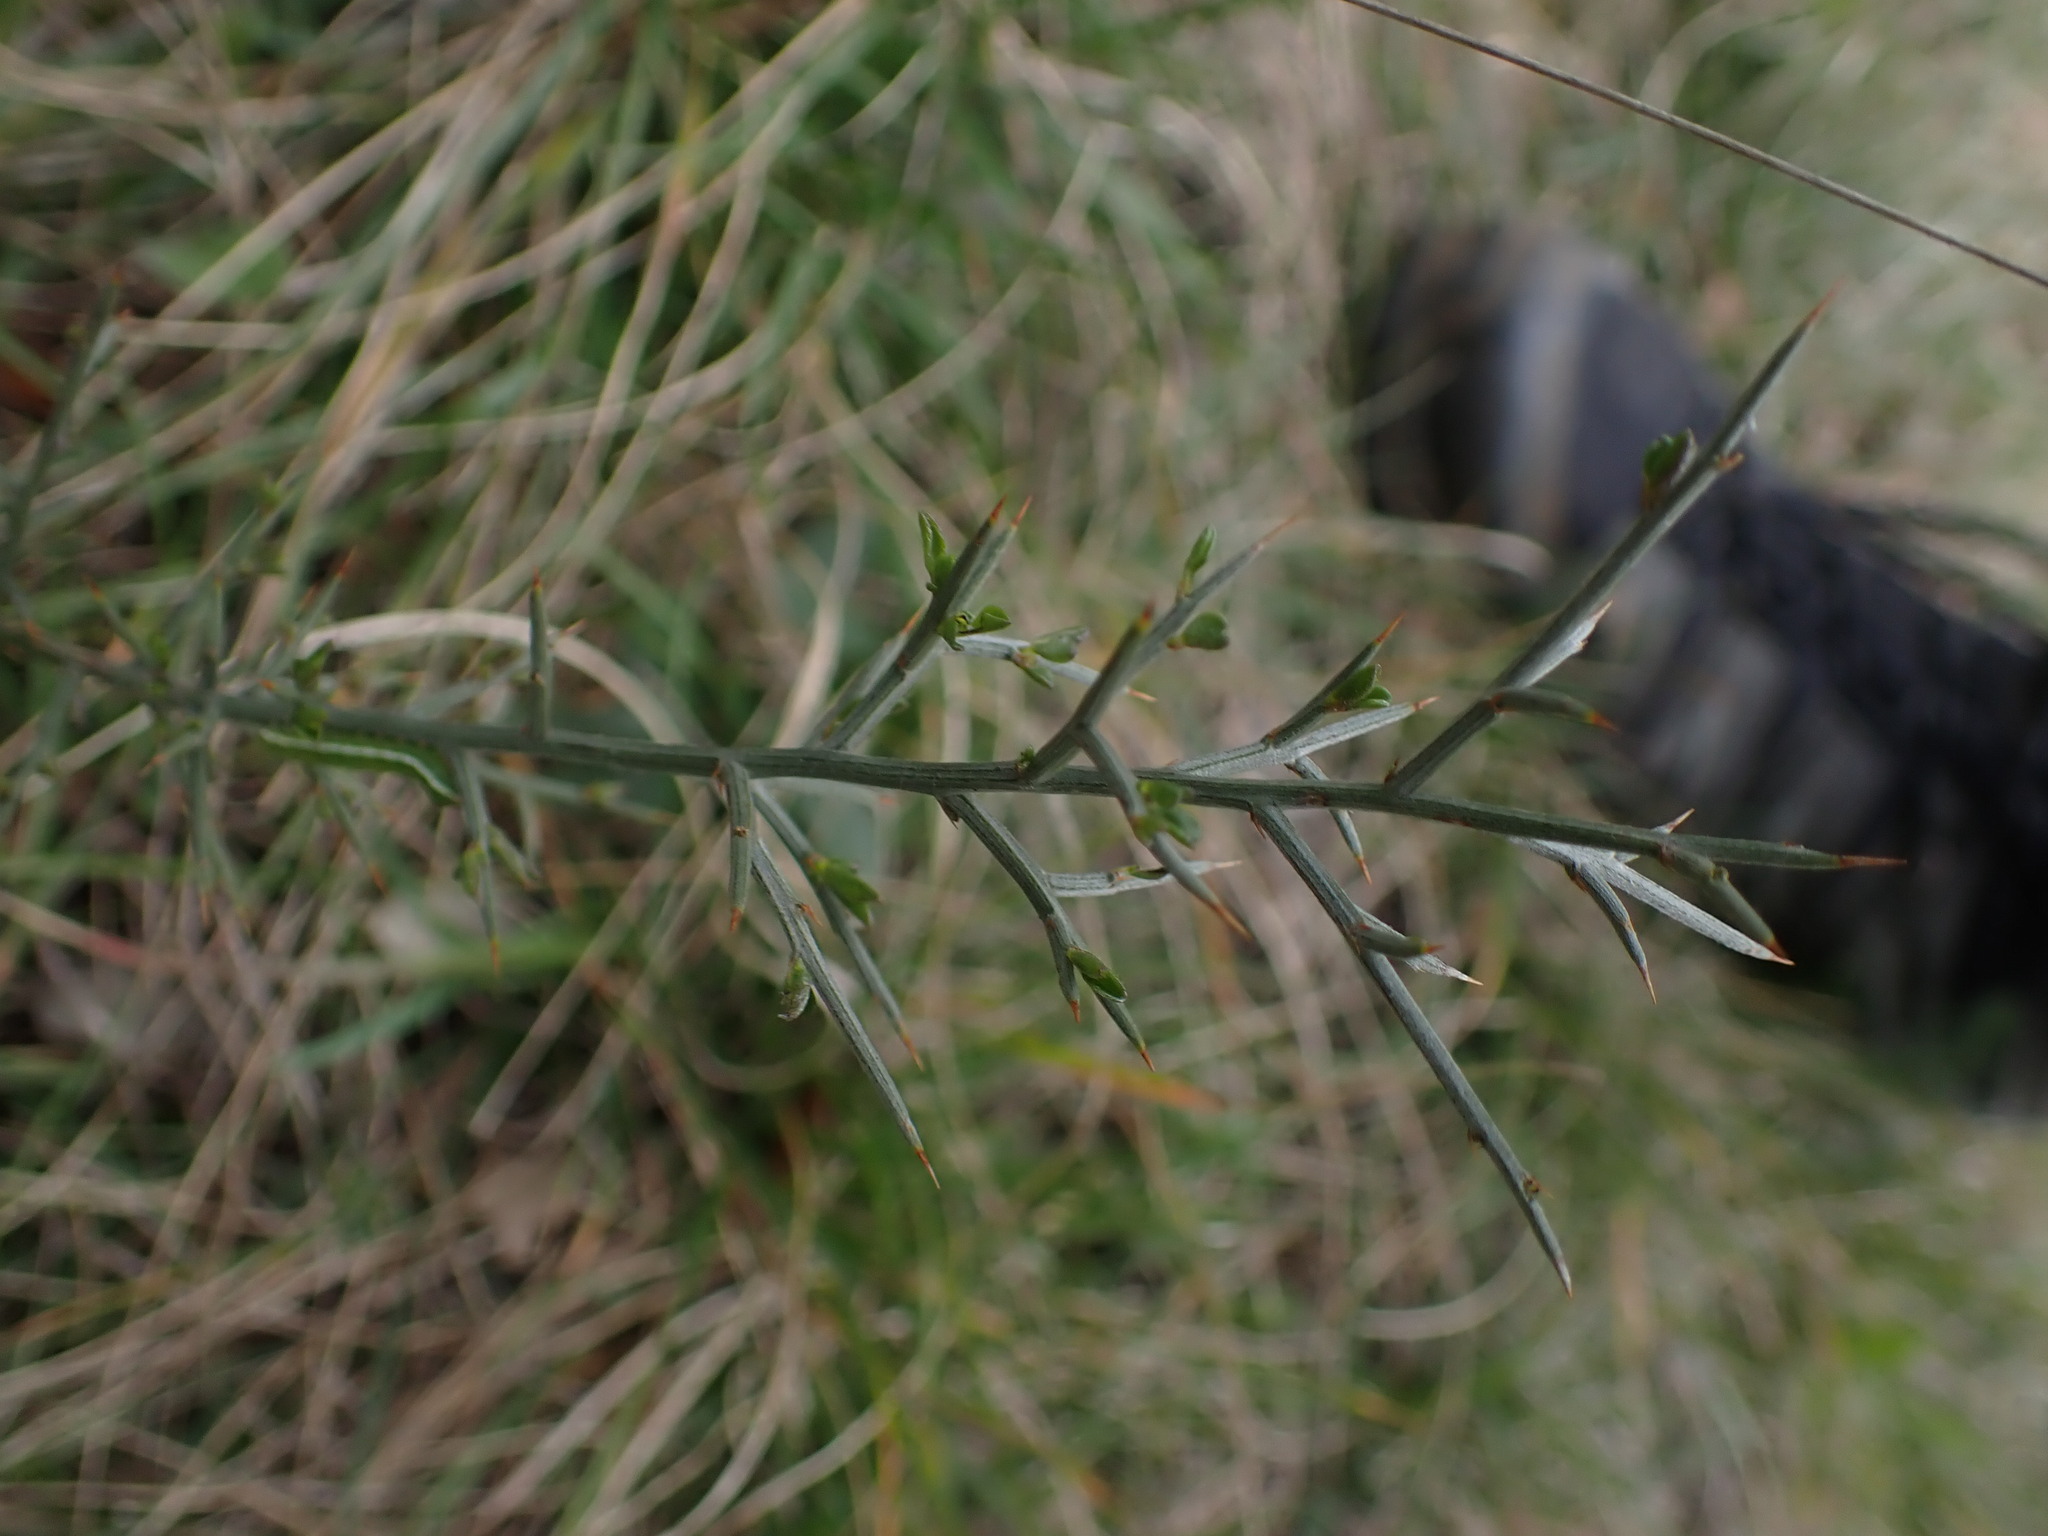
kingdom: Plantae
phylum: Tracheophyta
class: Magnoliopsida
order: Fabales
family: Fabaceae
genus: Genista
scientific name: Genista scorpius
